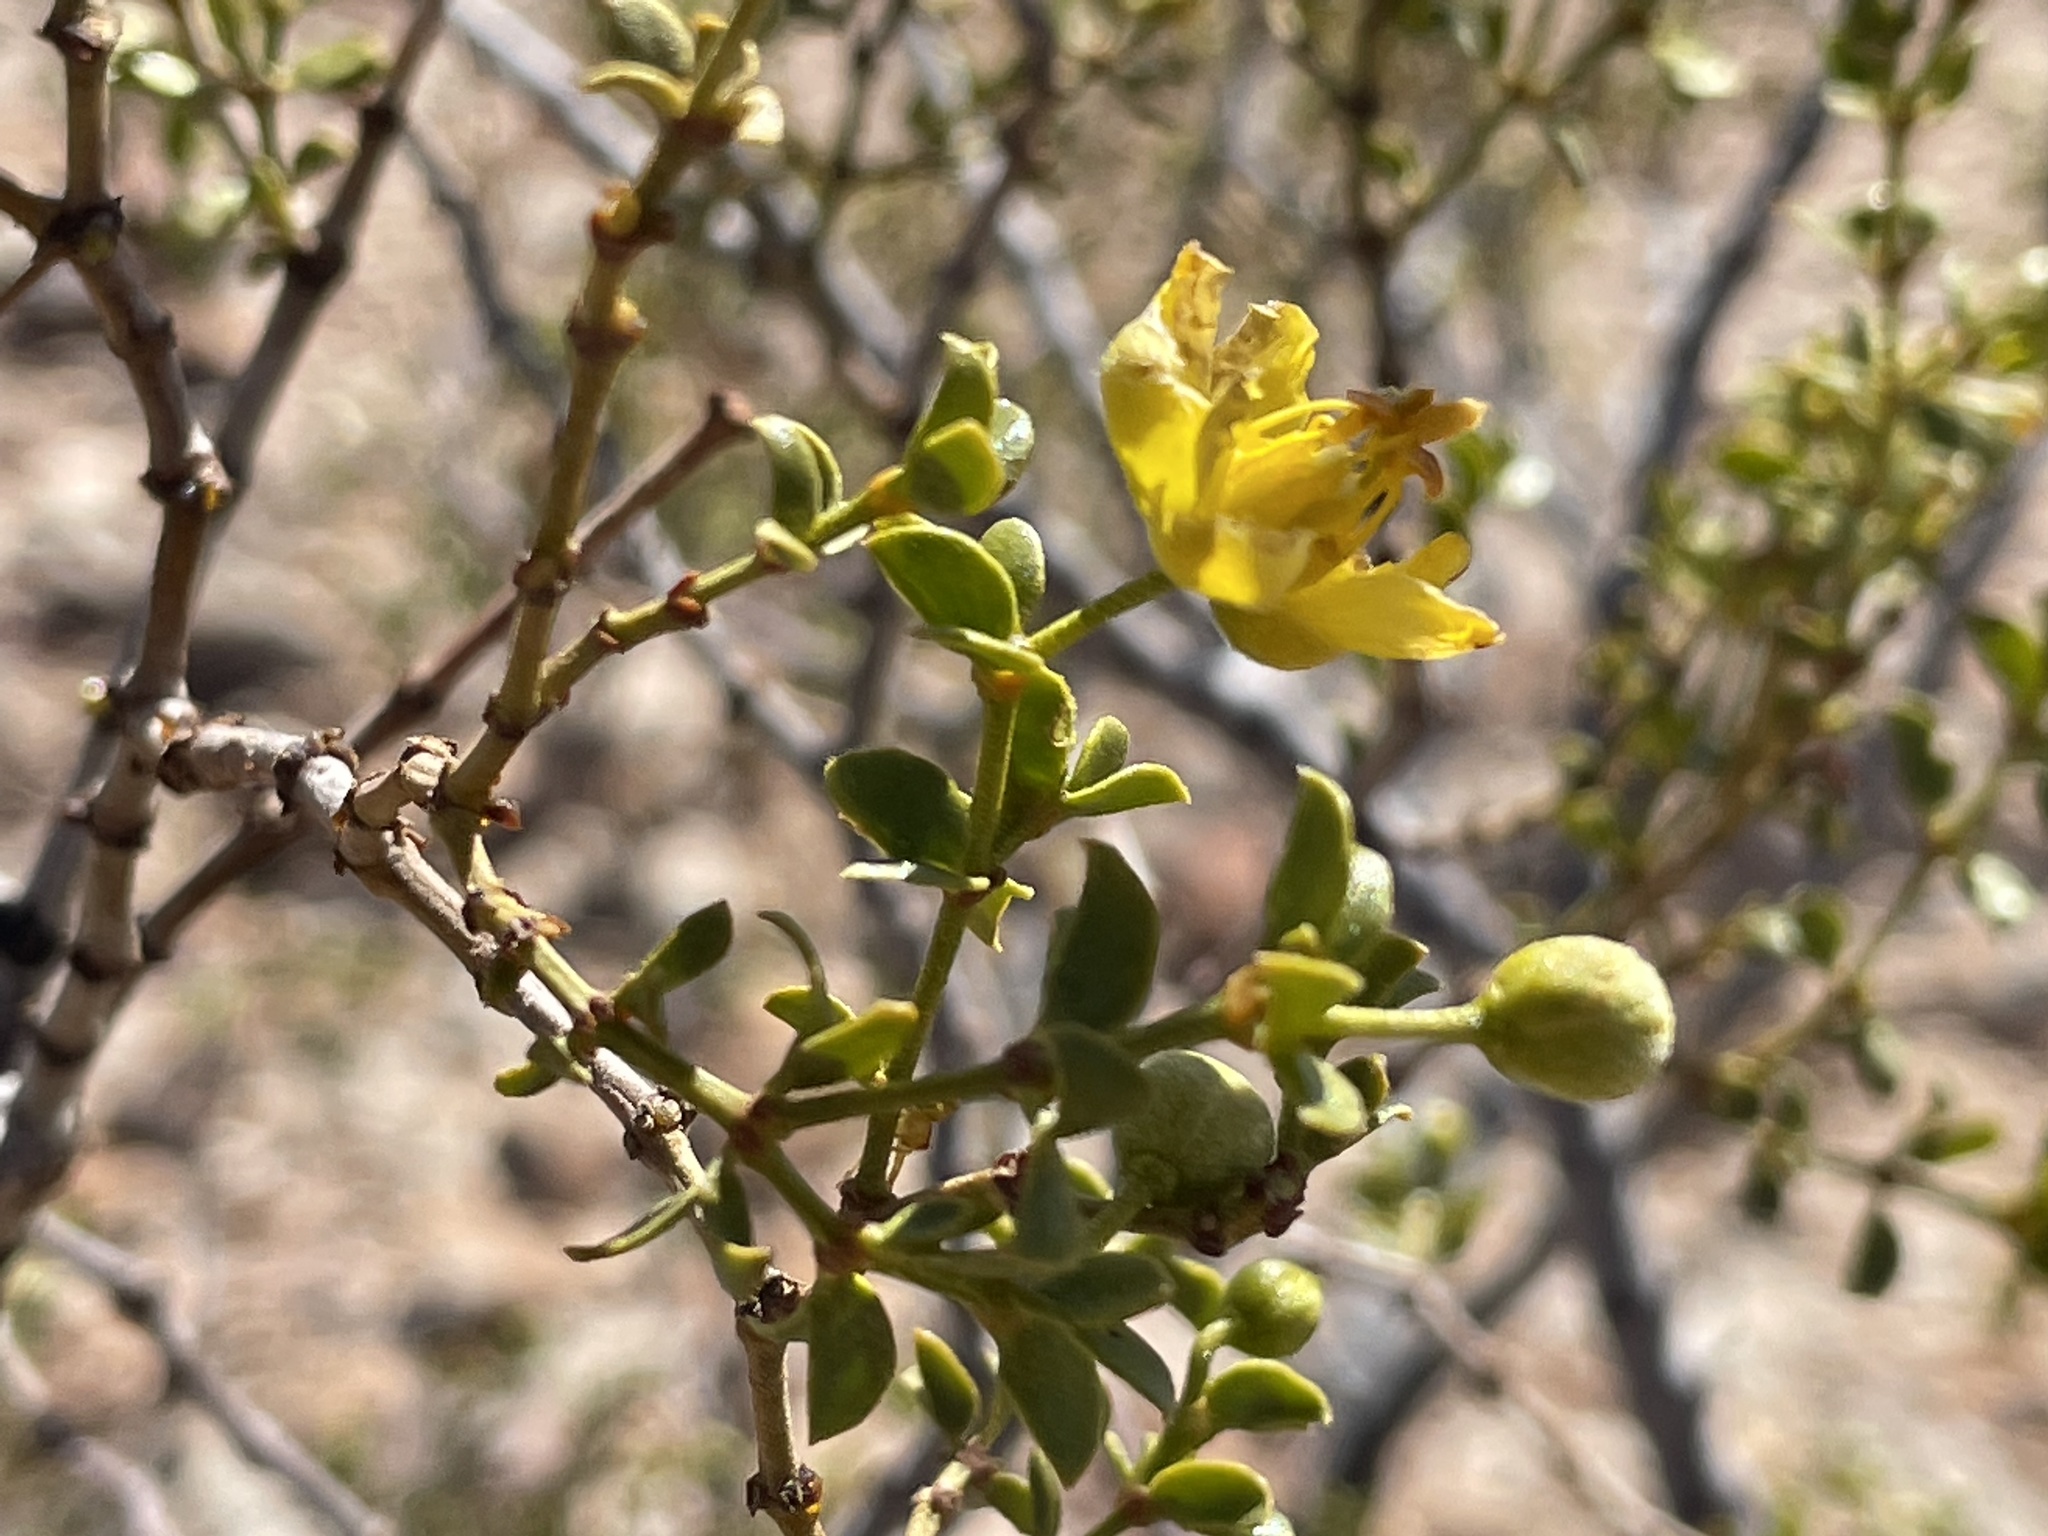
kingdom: Plantae
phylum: Tracheophyta
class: Magnoliopsida
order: Zygophyllales
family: Zygophyllaceae
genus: Larrea
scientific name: Larrea tridentata
